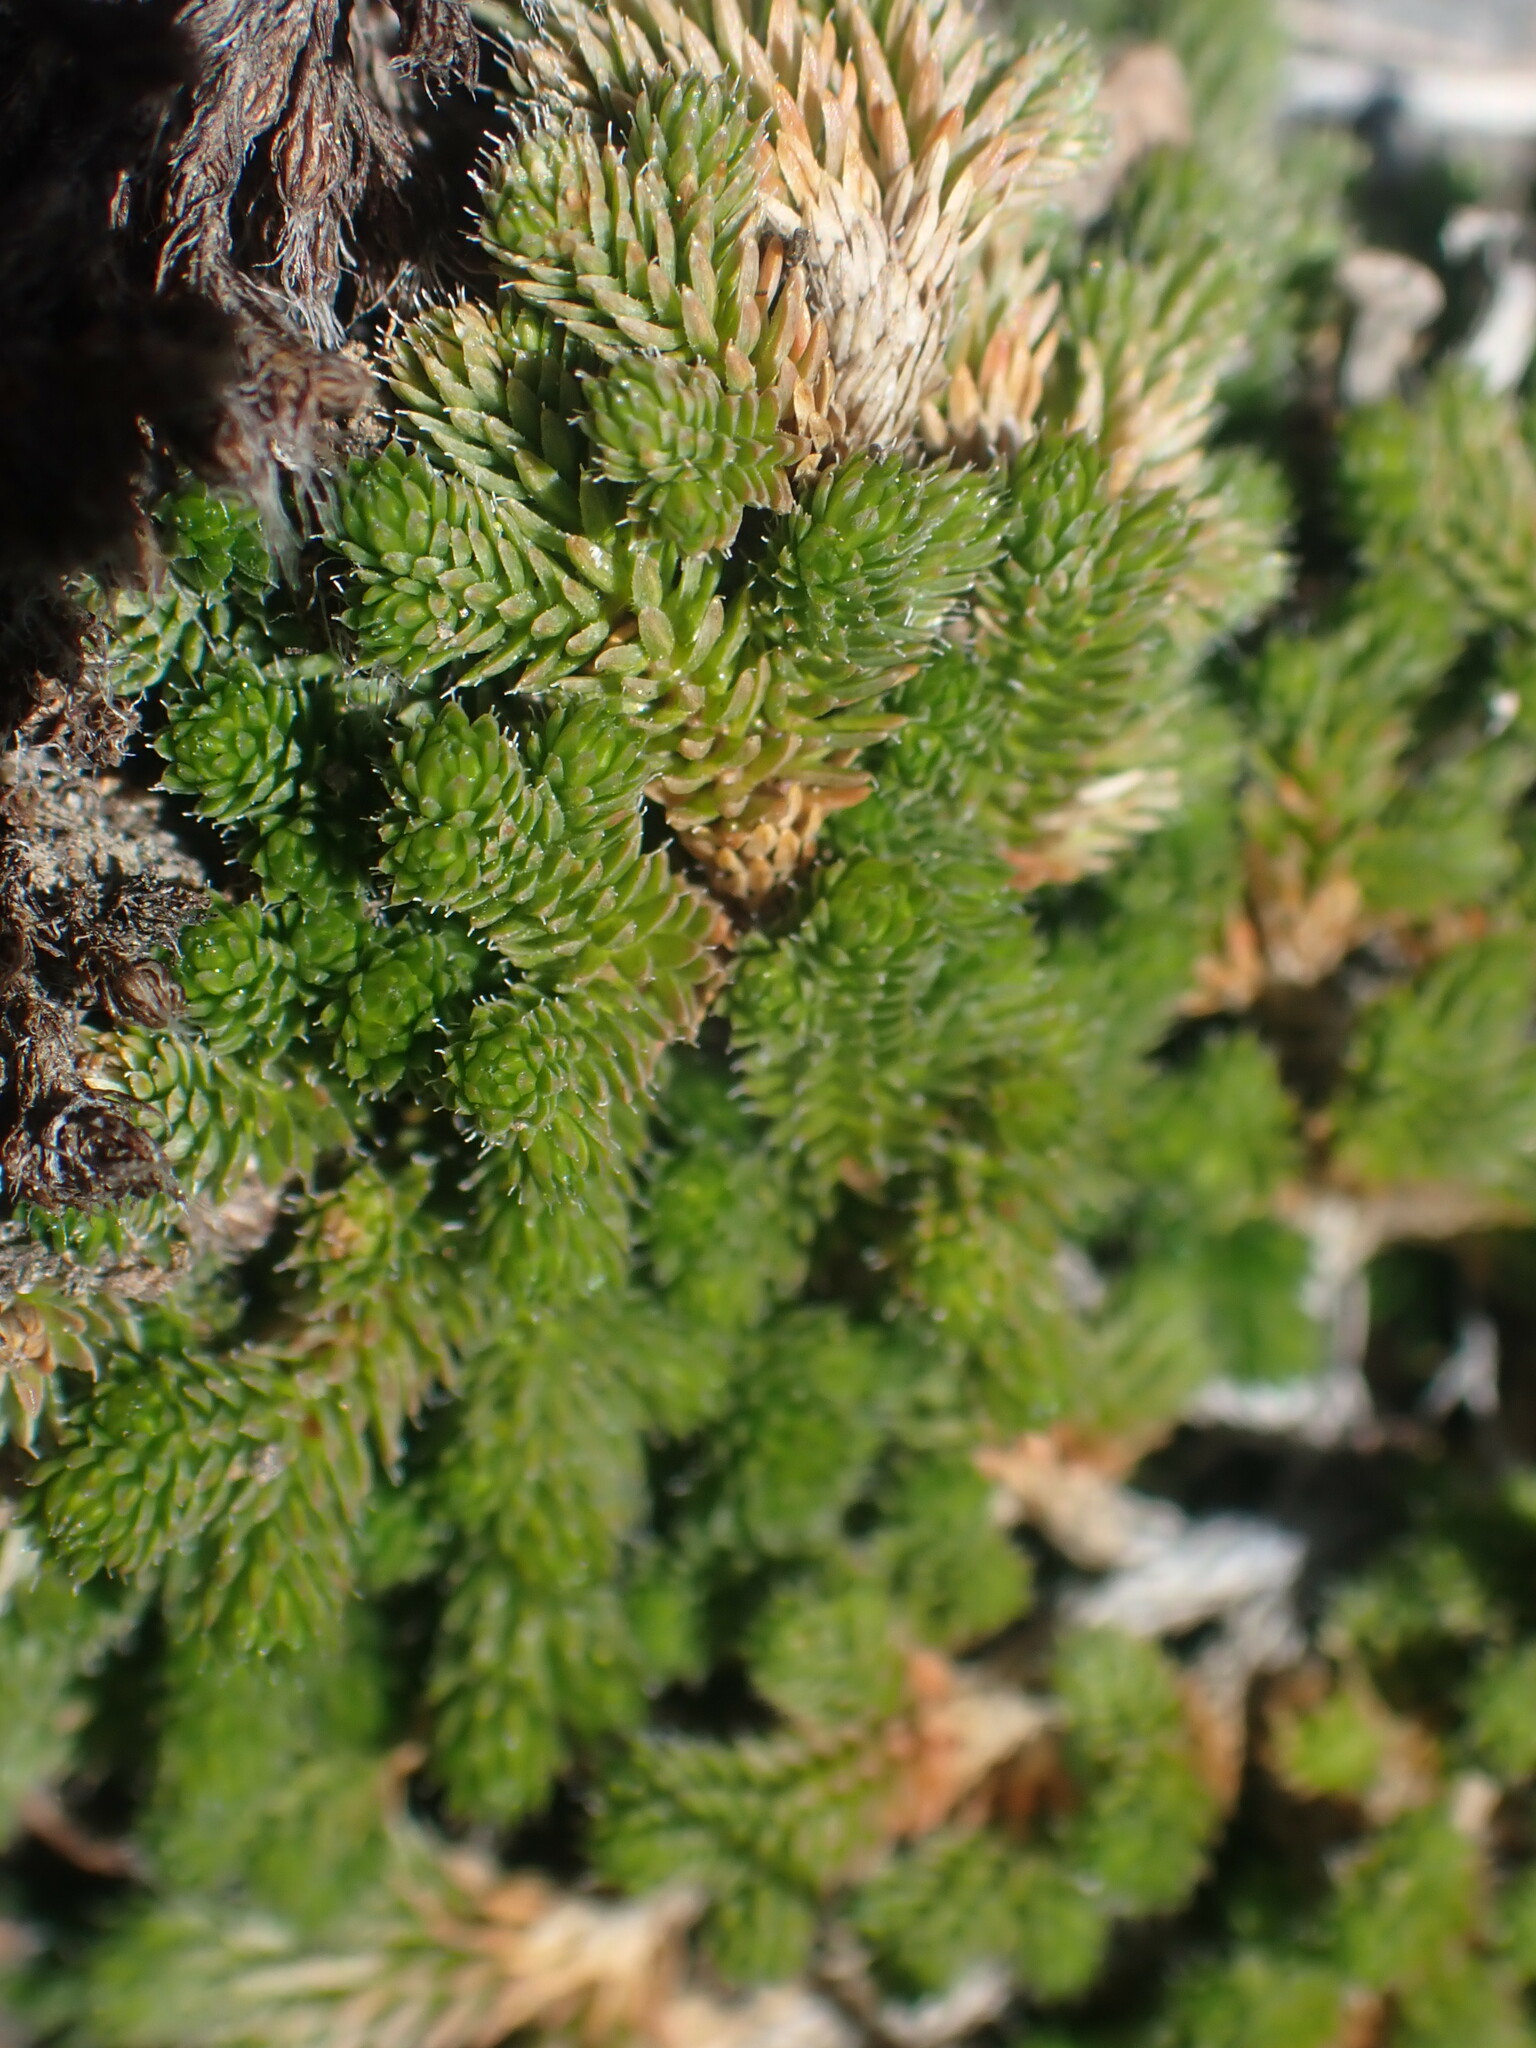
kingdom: Plantae
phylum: Tracheophyta
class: Lycopodiopsida
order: Selaginellales
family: Selaginellaceae
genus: Selaginella
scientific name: Selaginella densa
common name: Mountain spike-moss
